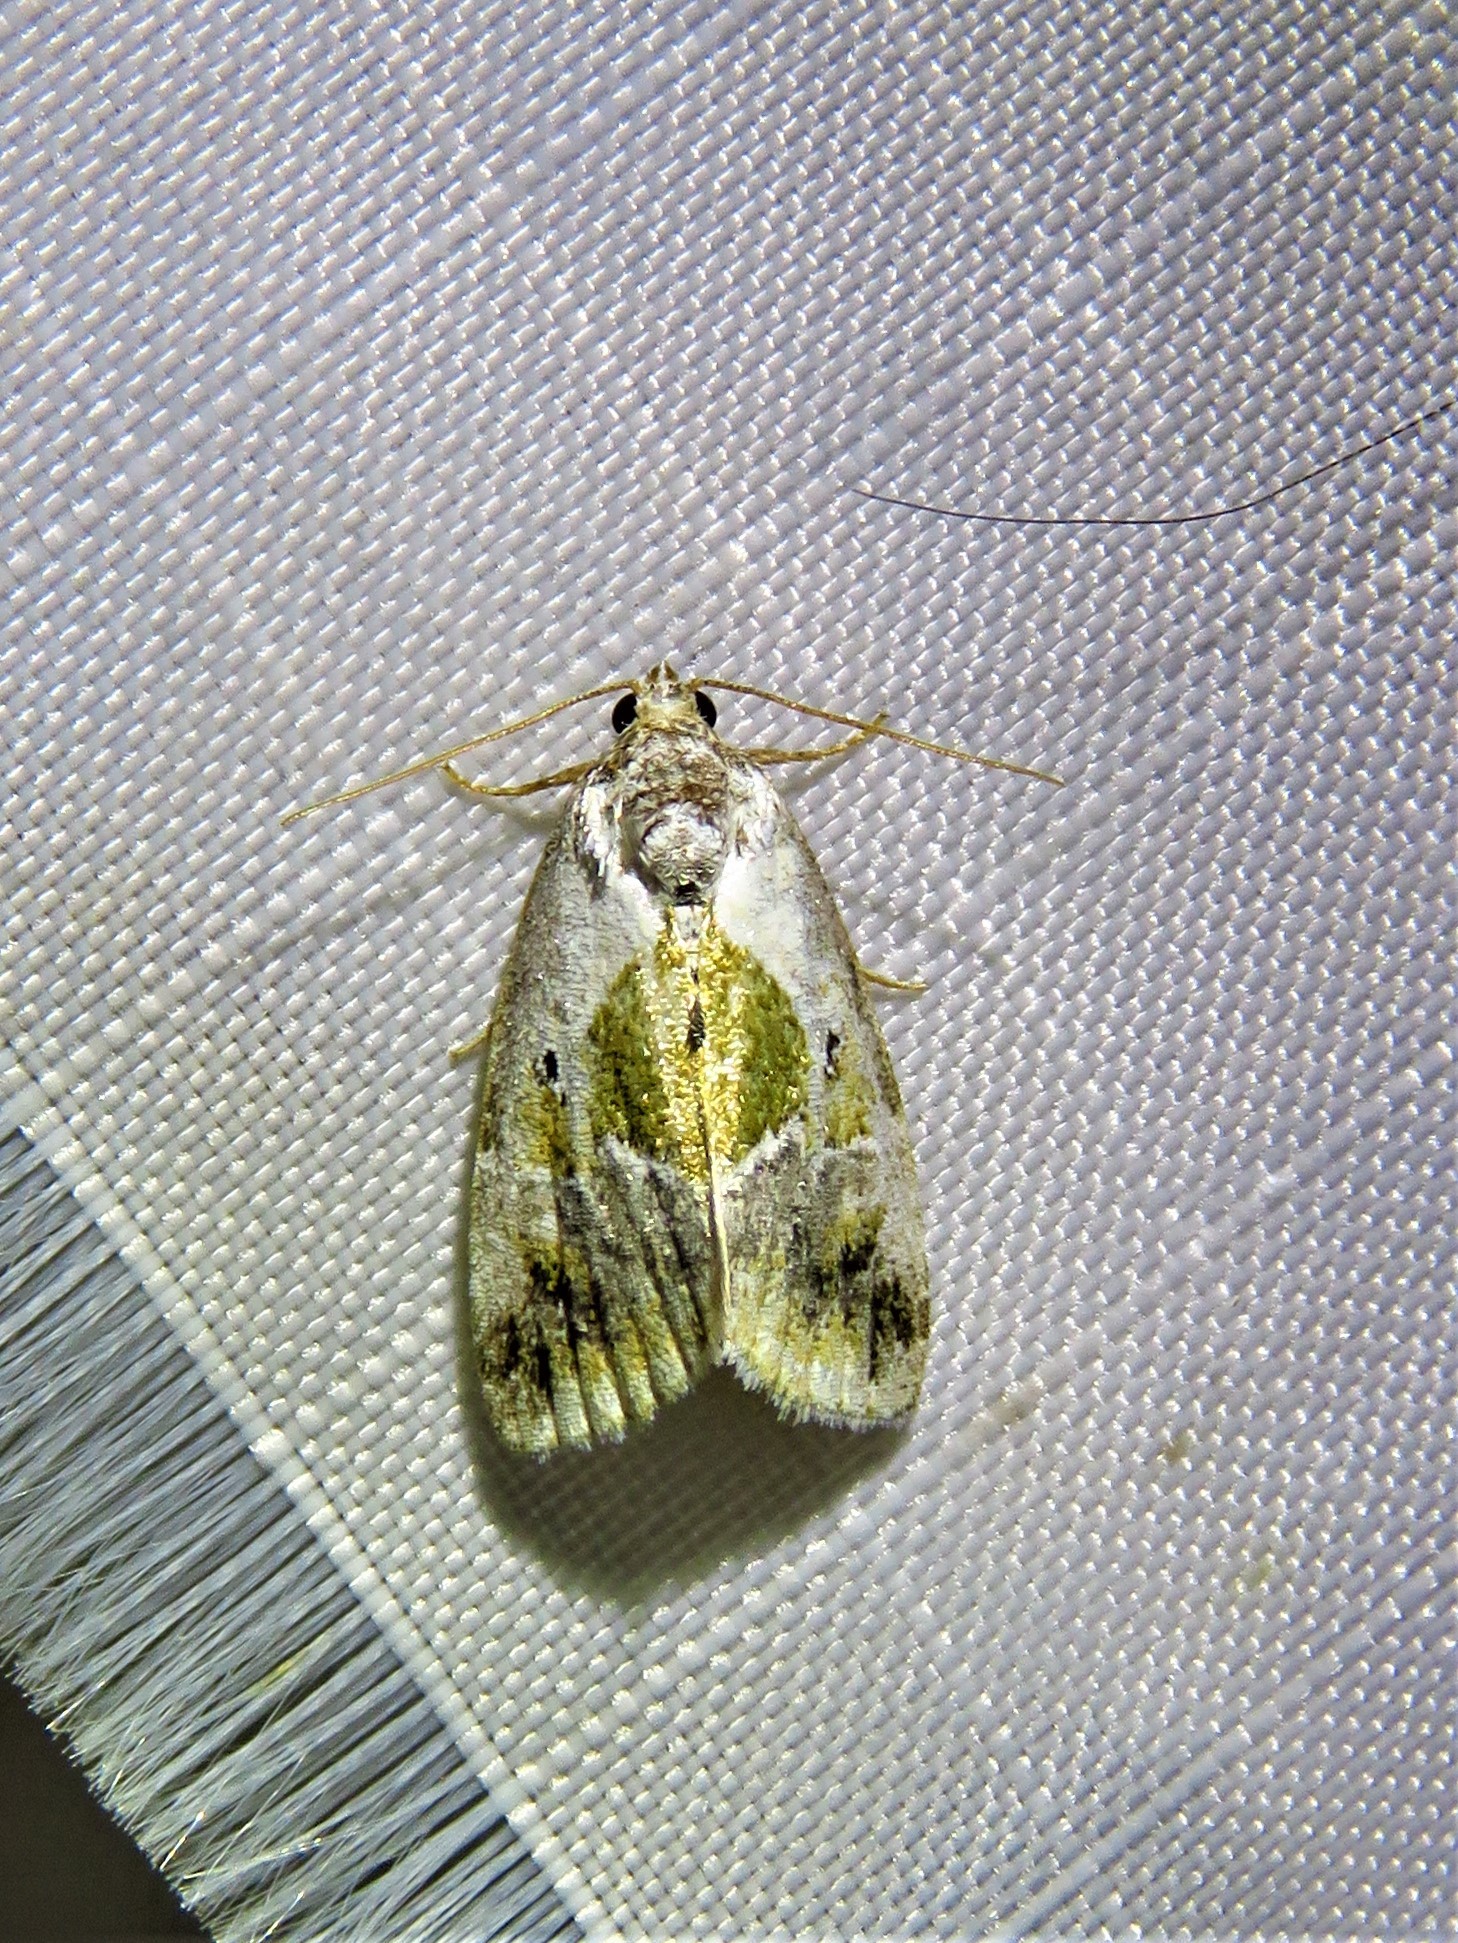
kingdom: Animalia
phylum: Arthropoda
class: Insecta
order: Lepidoptera
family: Noctuidae
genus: Maliattha
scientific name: Maliattha synochitis
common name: Black-dotted glyph
